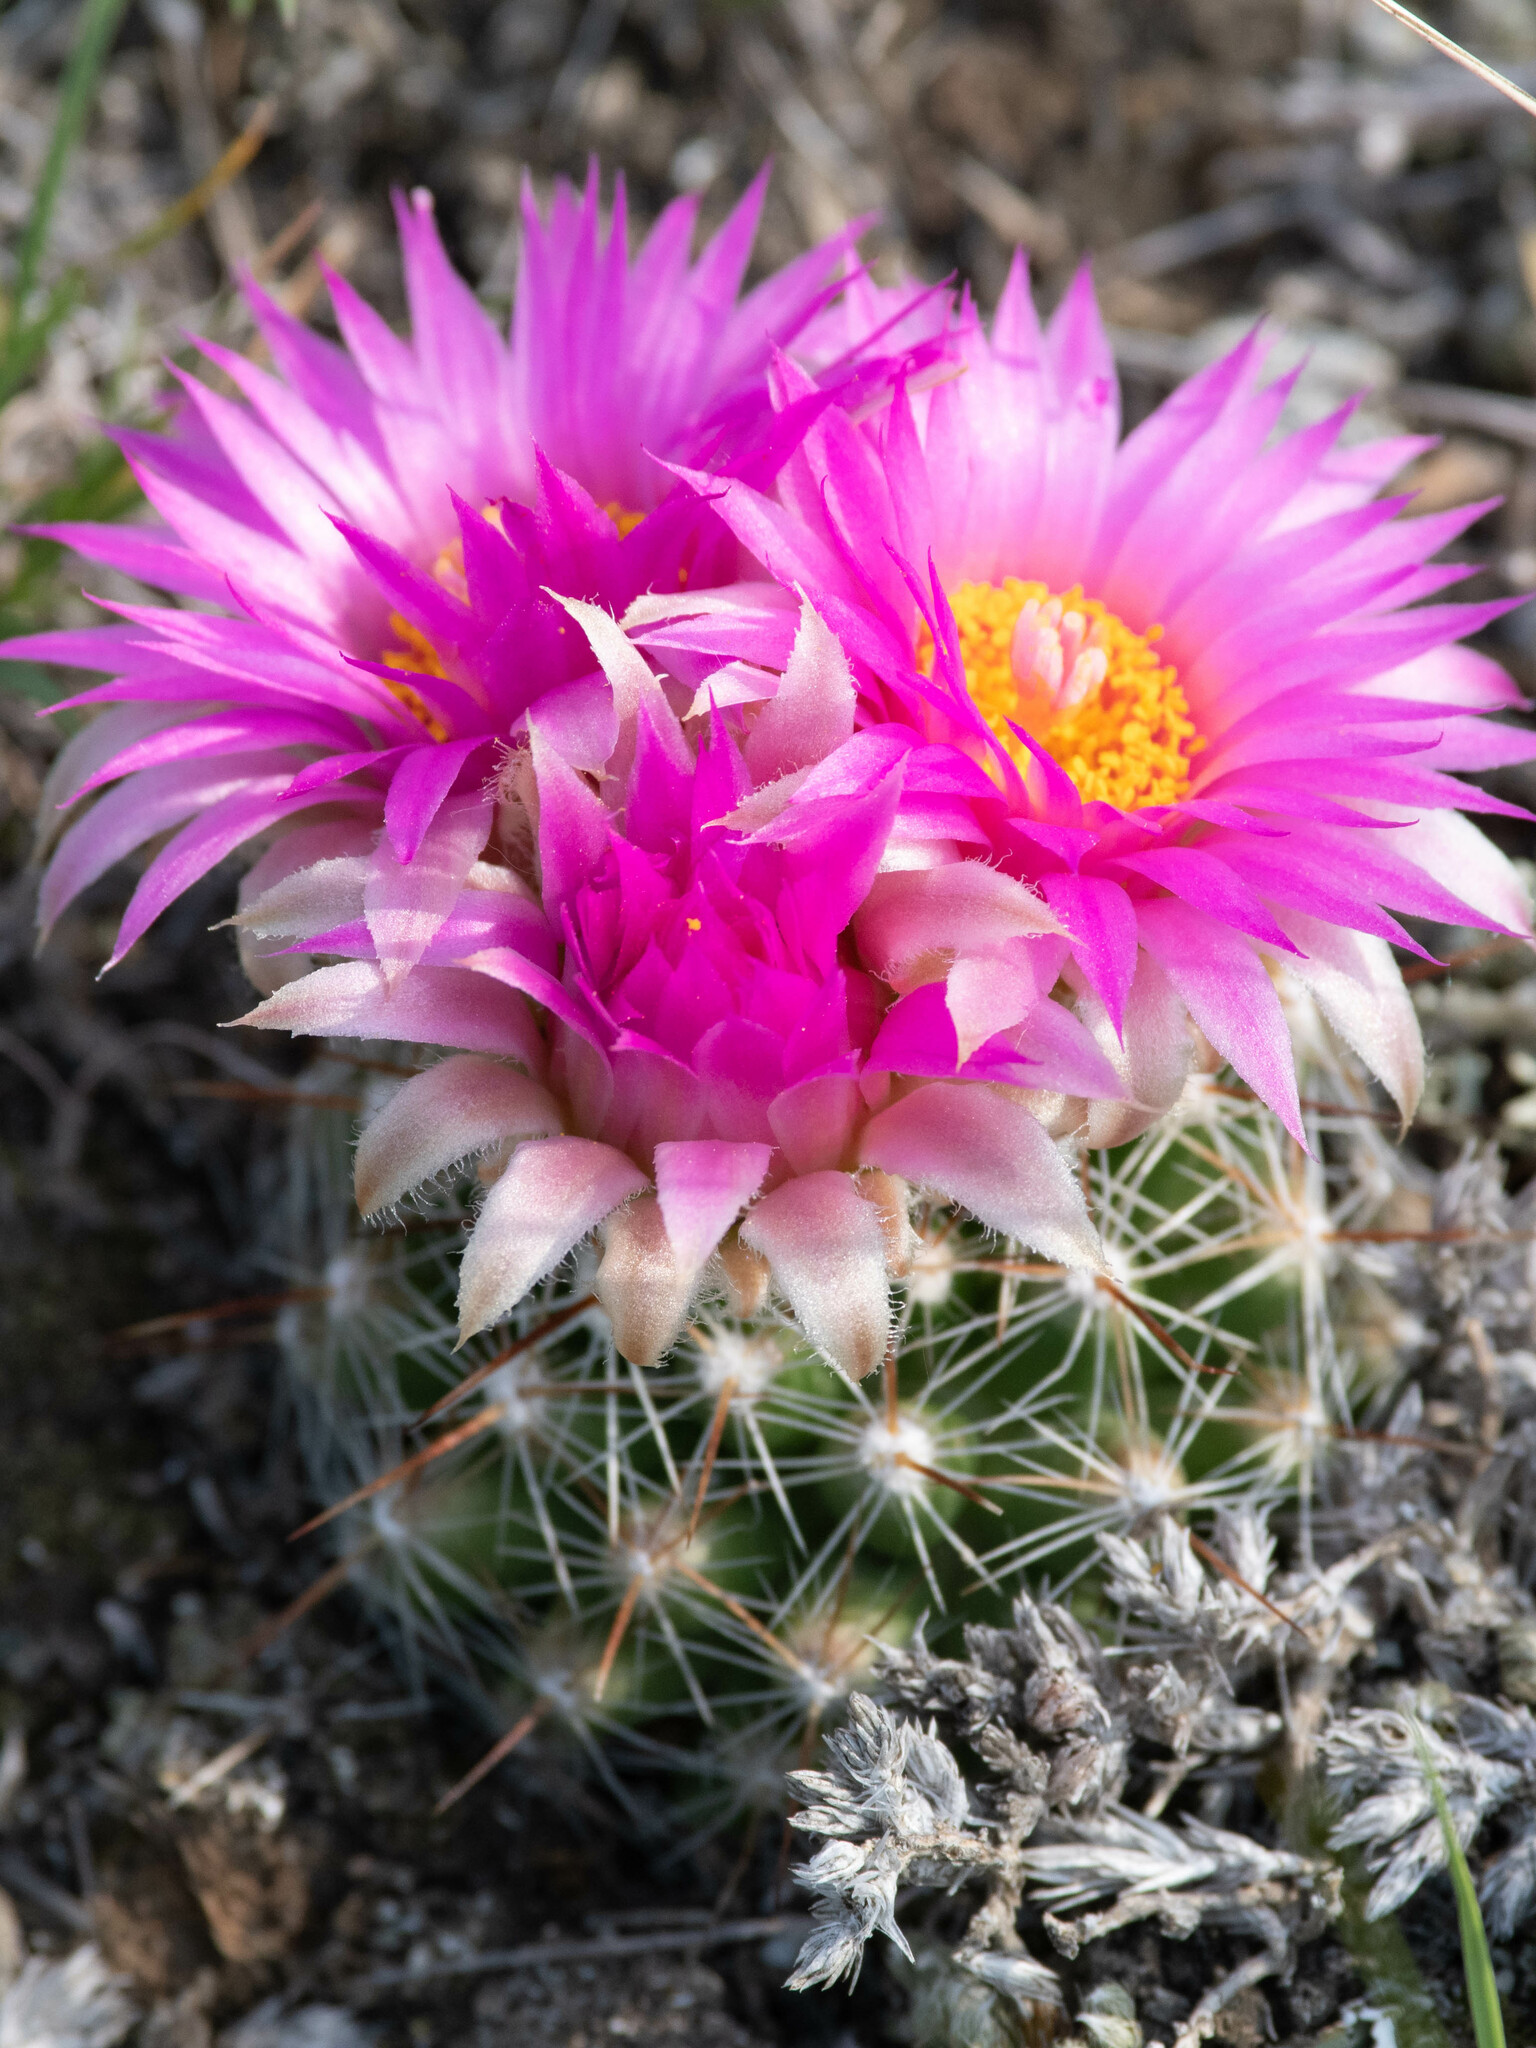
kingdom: Plantae
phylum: Tracheophyta
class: Magnoliopsida
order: Caryophyllales
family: Cactaceae
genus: Pelecyphora
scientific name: Pelecyphora vivipara
